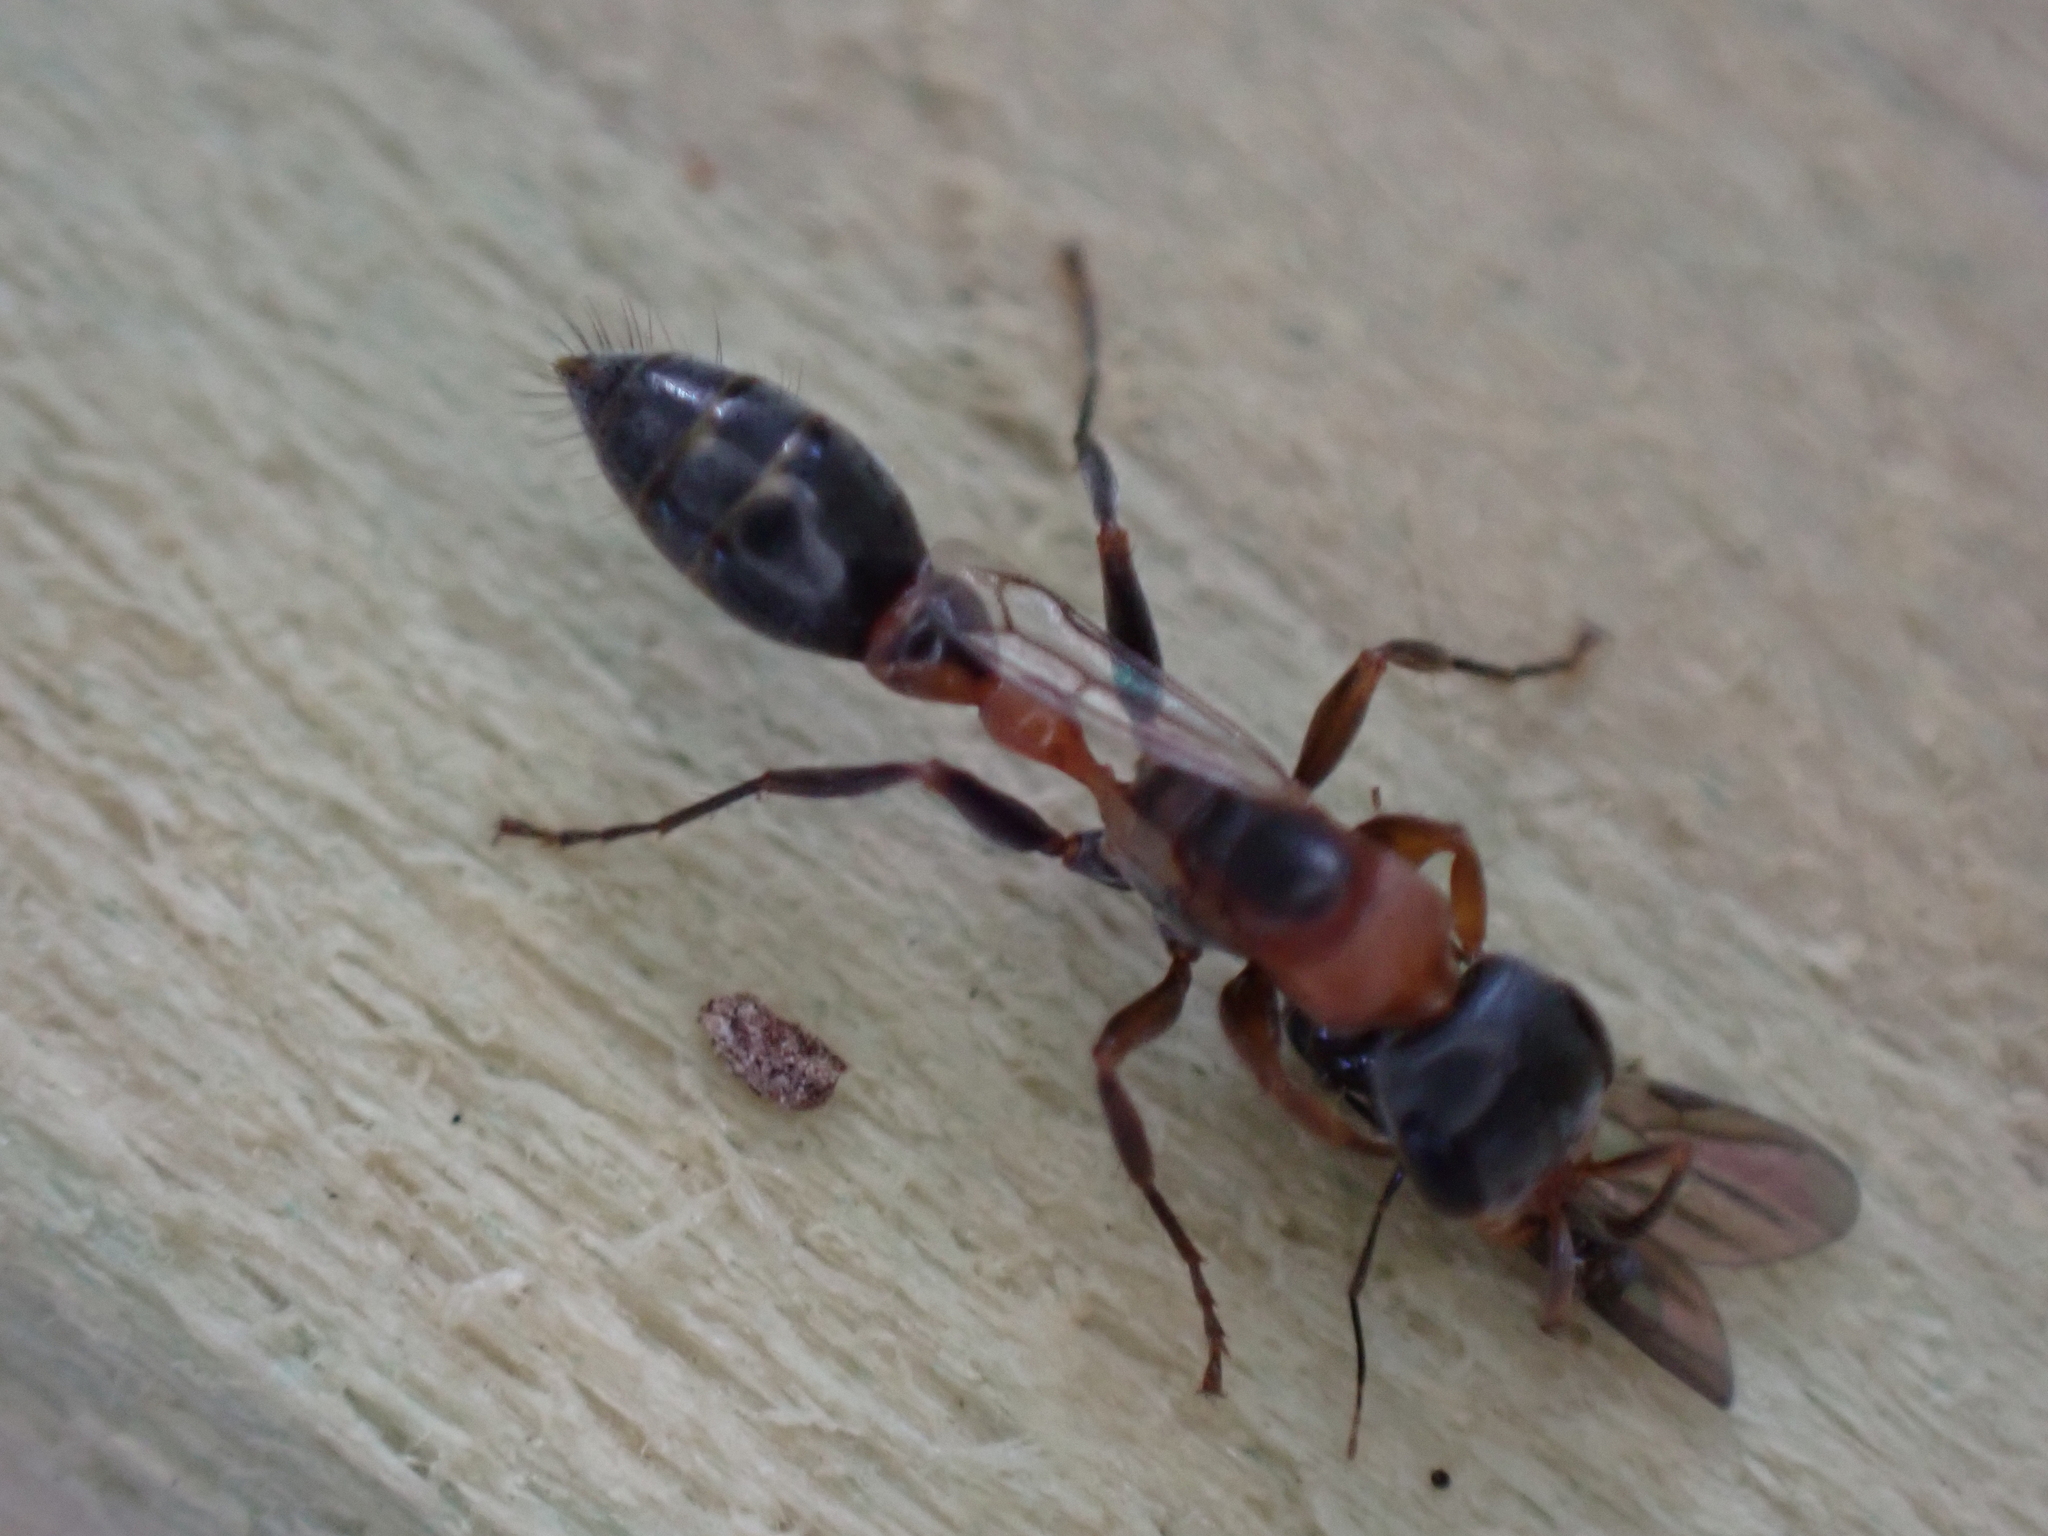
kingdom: Animalia
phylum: Arthropoda
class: Insecta
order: Hymenoptera
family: Formicidae
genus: Pseudomyrmex
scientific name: Pseudomyrmex gracilis
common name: Graceful twig ant
